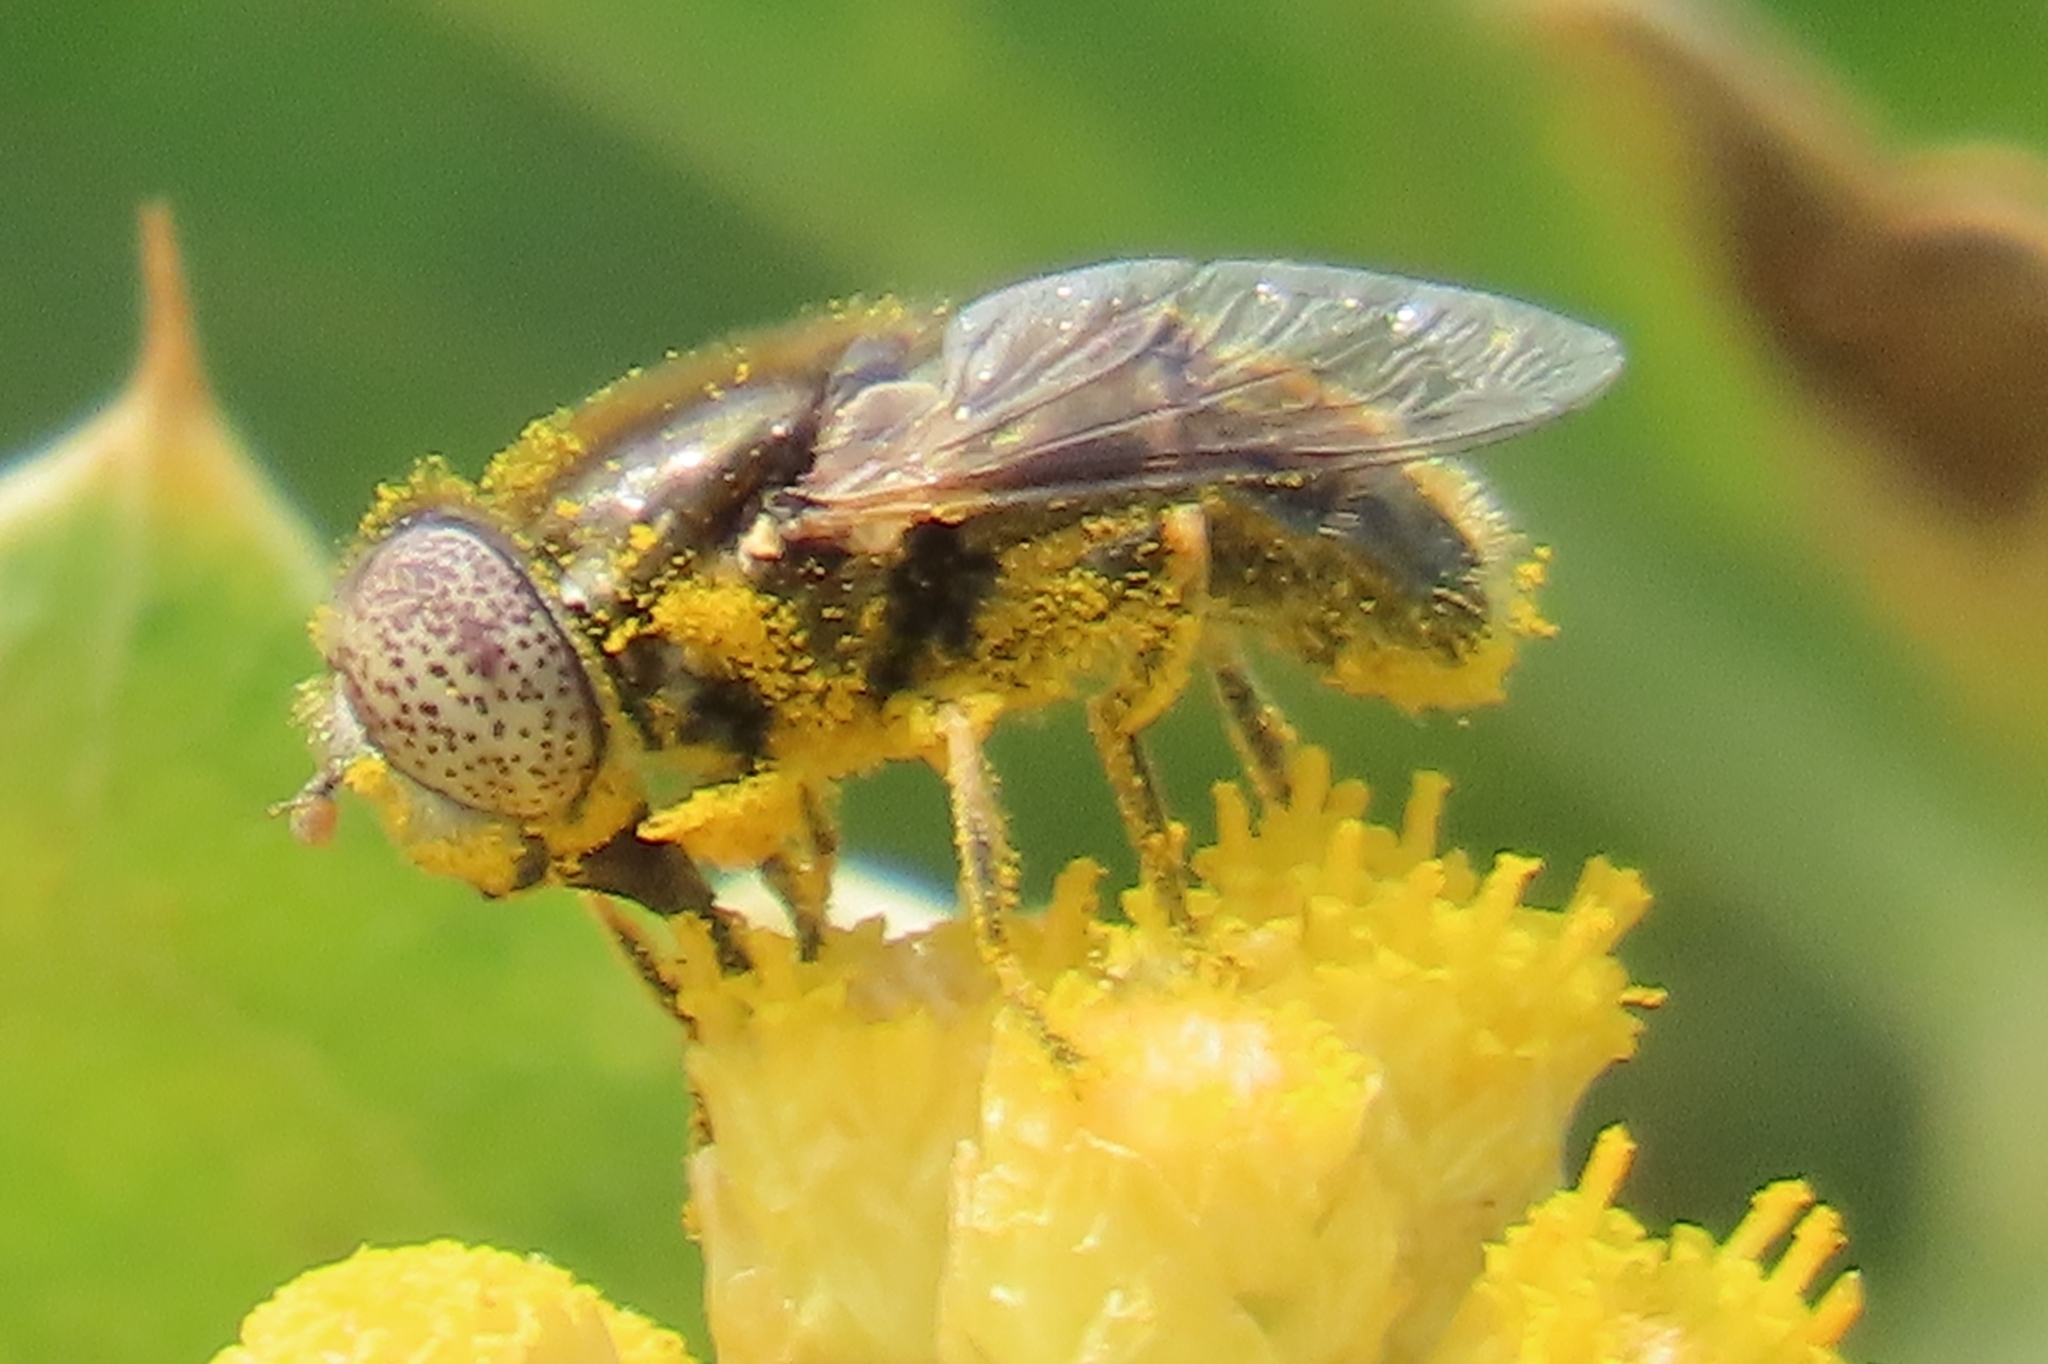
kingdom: Animalia
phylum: Arthropoda
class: Insecta
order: Diptera
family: Syrphidae
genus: Eristalinus
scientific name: Eristalinus aeneus
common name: Syrphid fly
